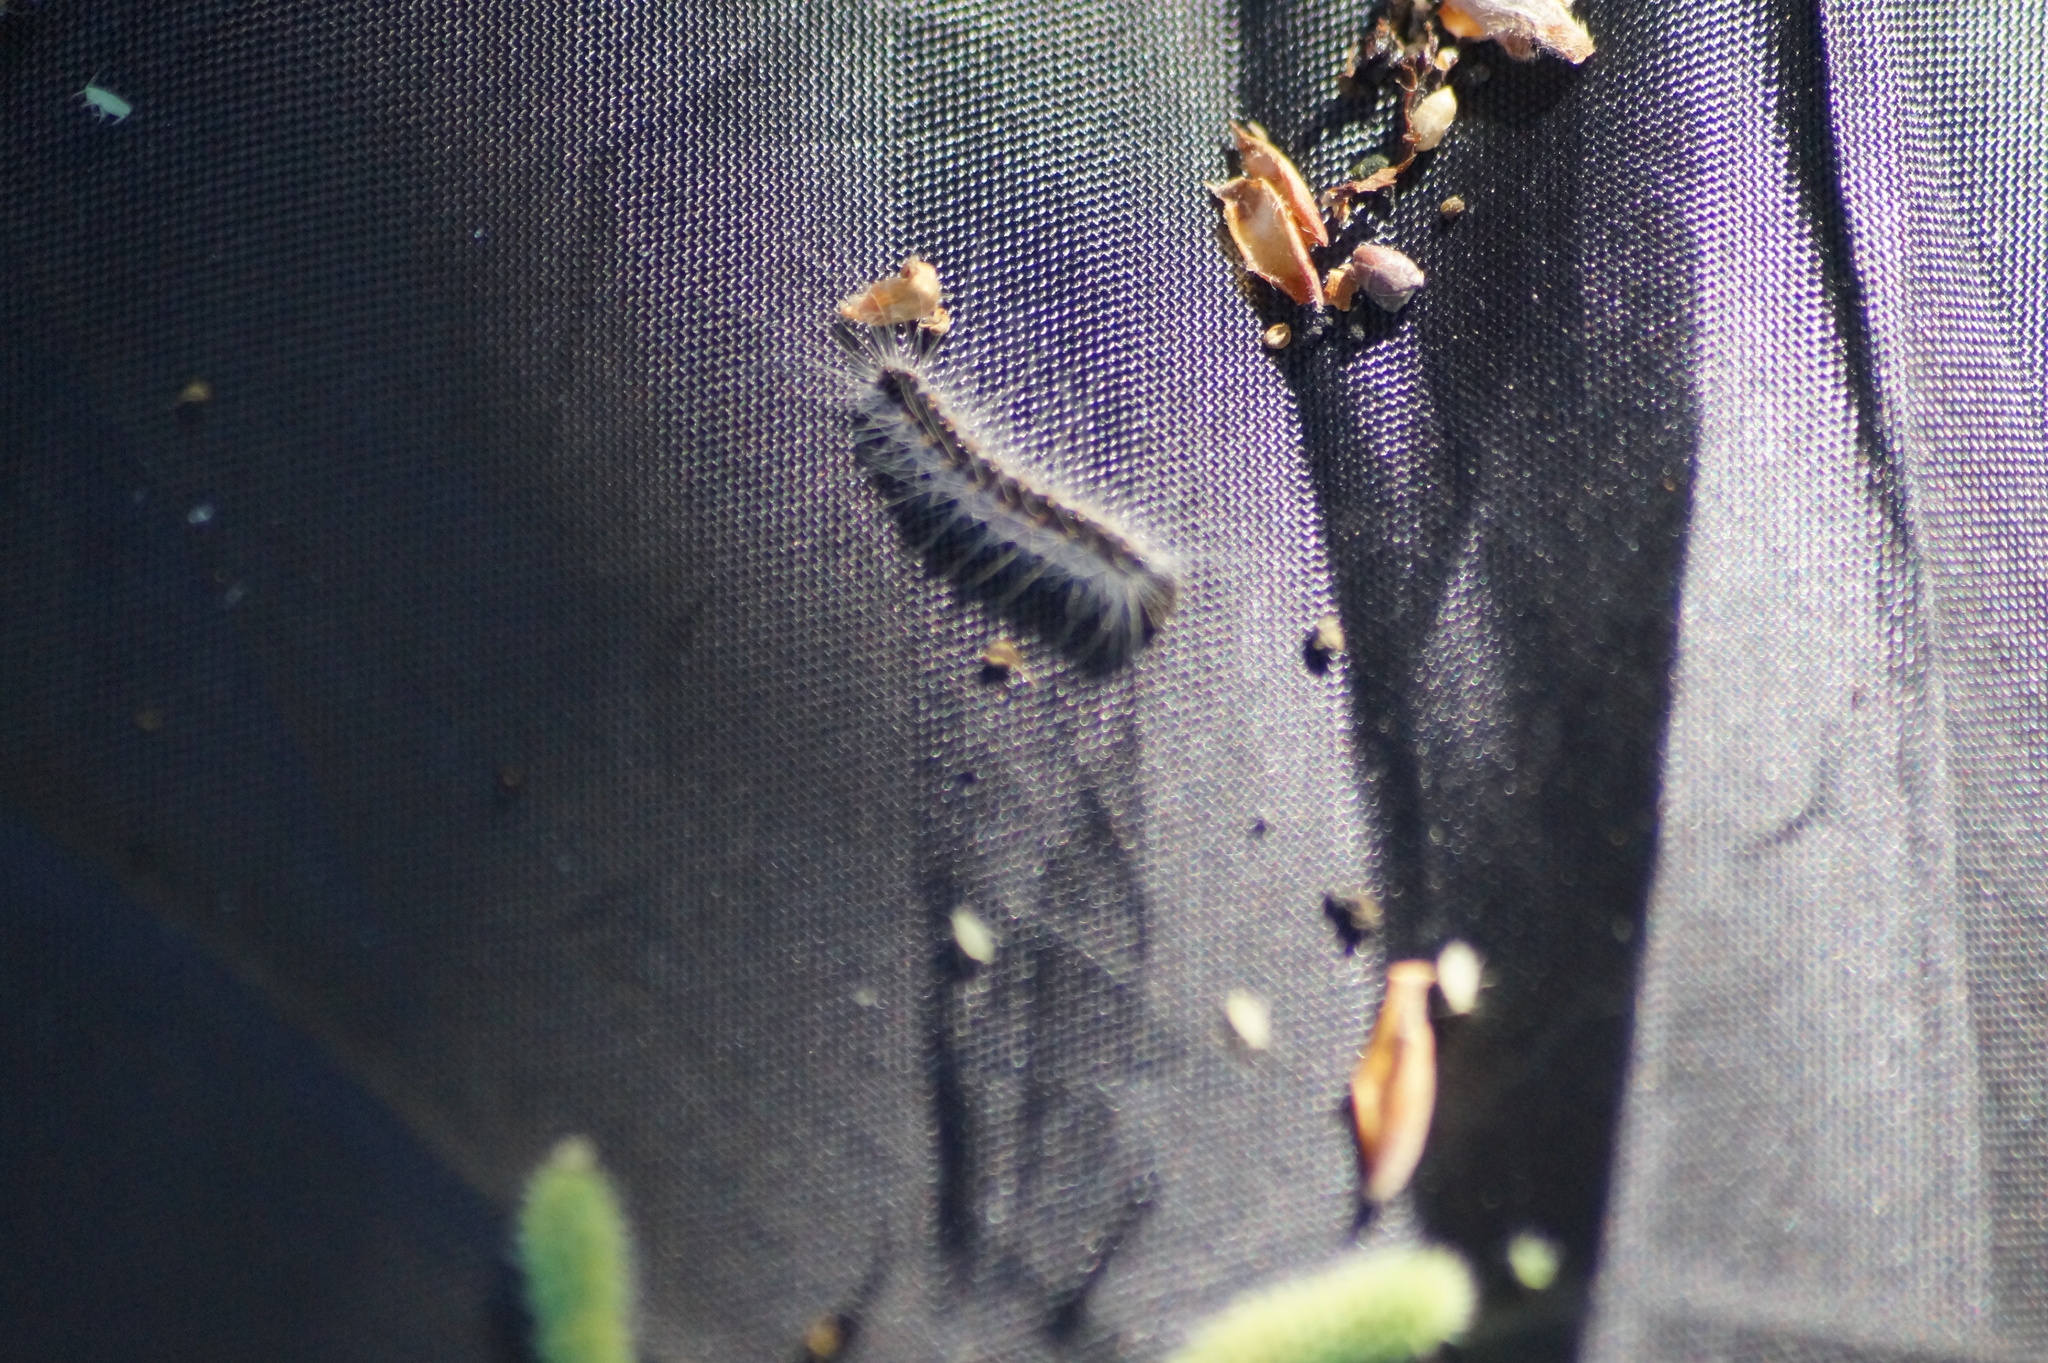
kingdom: Animalia
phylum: Arthropoda
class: Insecta
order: Lepidoptera
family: Notodontidae
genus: Thaumetopoea
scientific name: Thaumetopoea processionea
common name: Oak processionea
